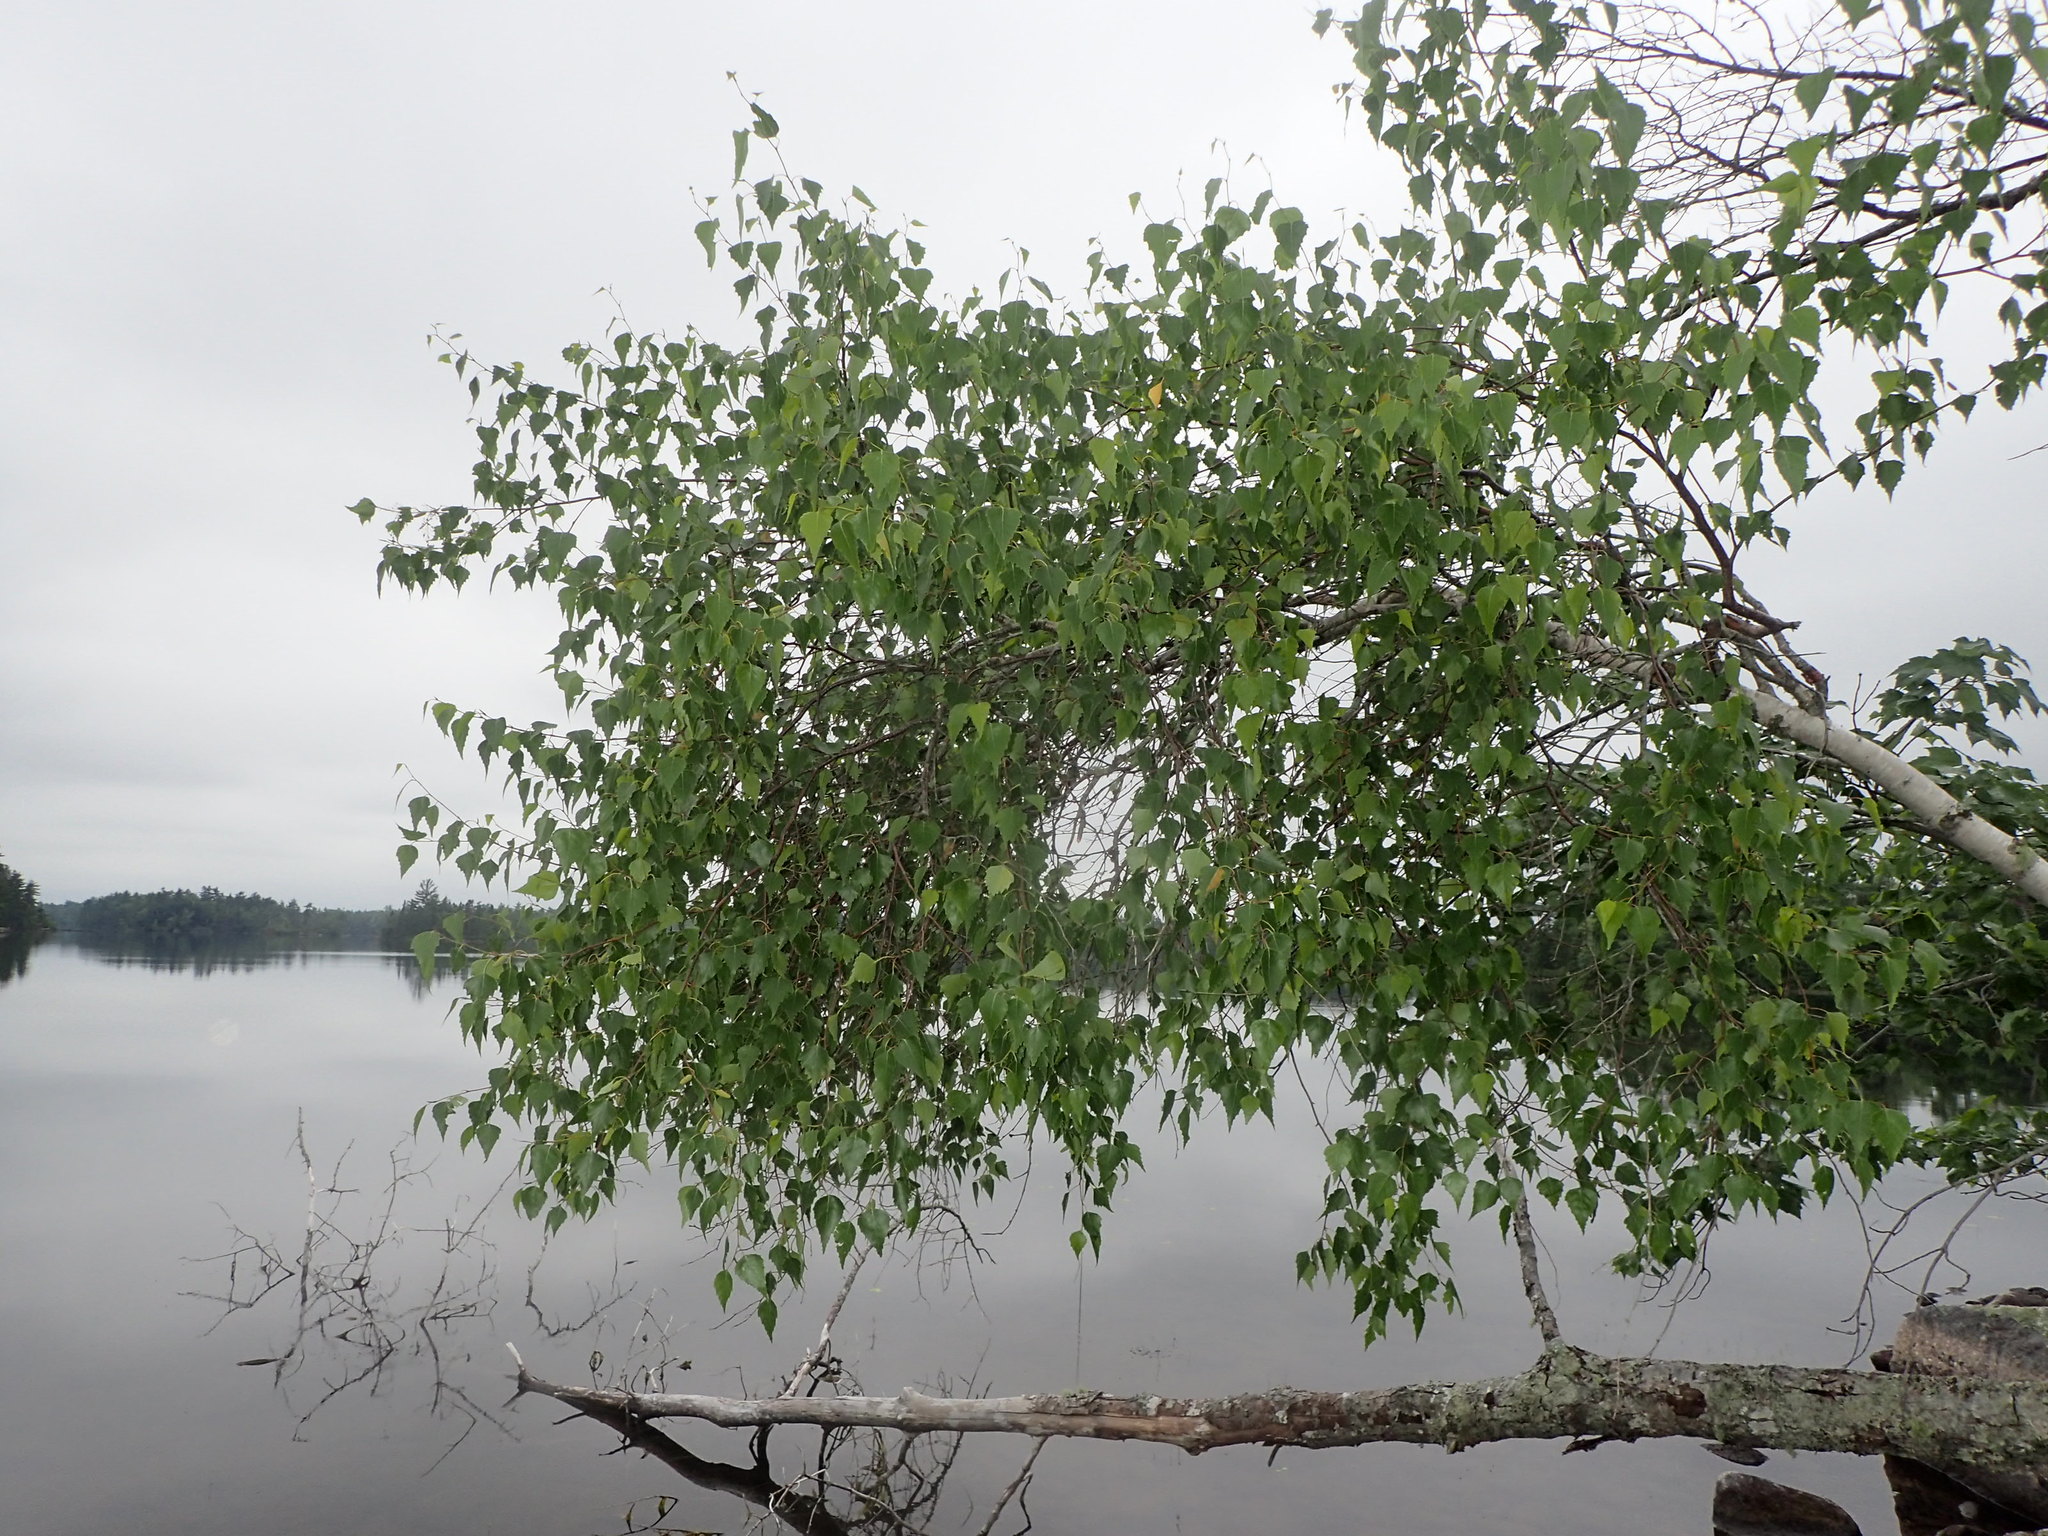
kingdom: Plantae
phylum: Tracheophyta
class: Magnoliopsida
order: Fagales
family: Betulaceae
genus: Betula
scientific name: Betula populifolia
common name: Fire birch
